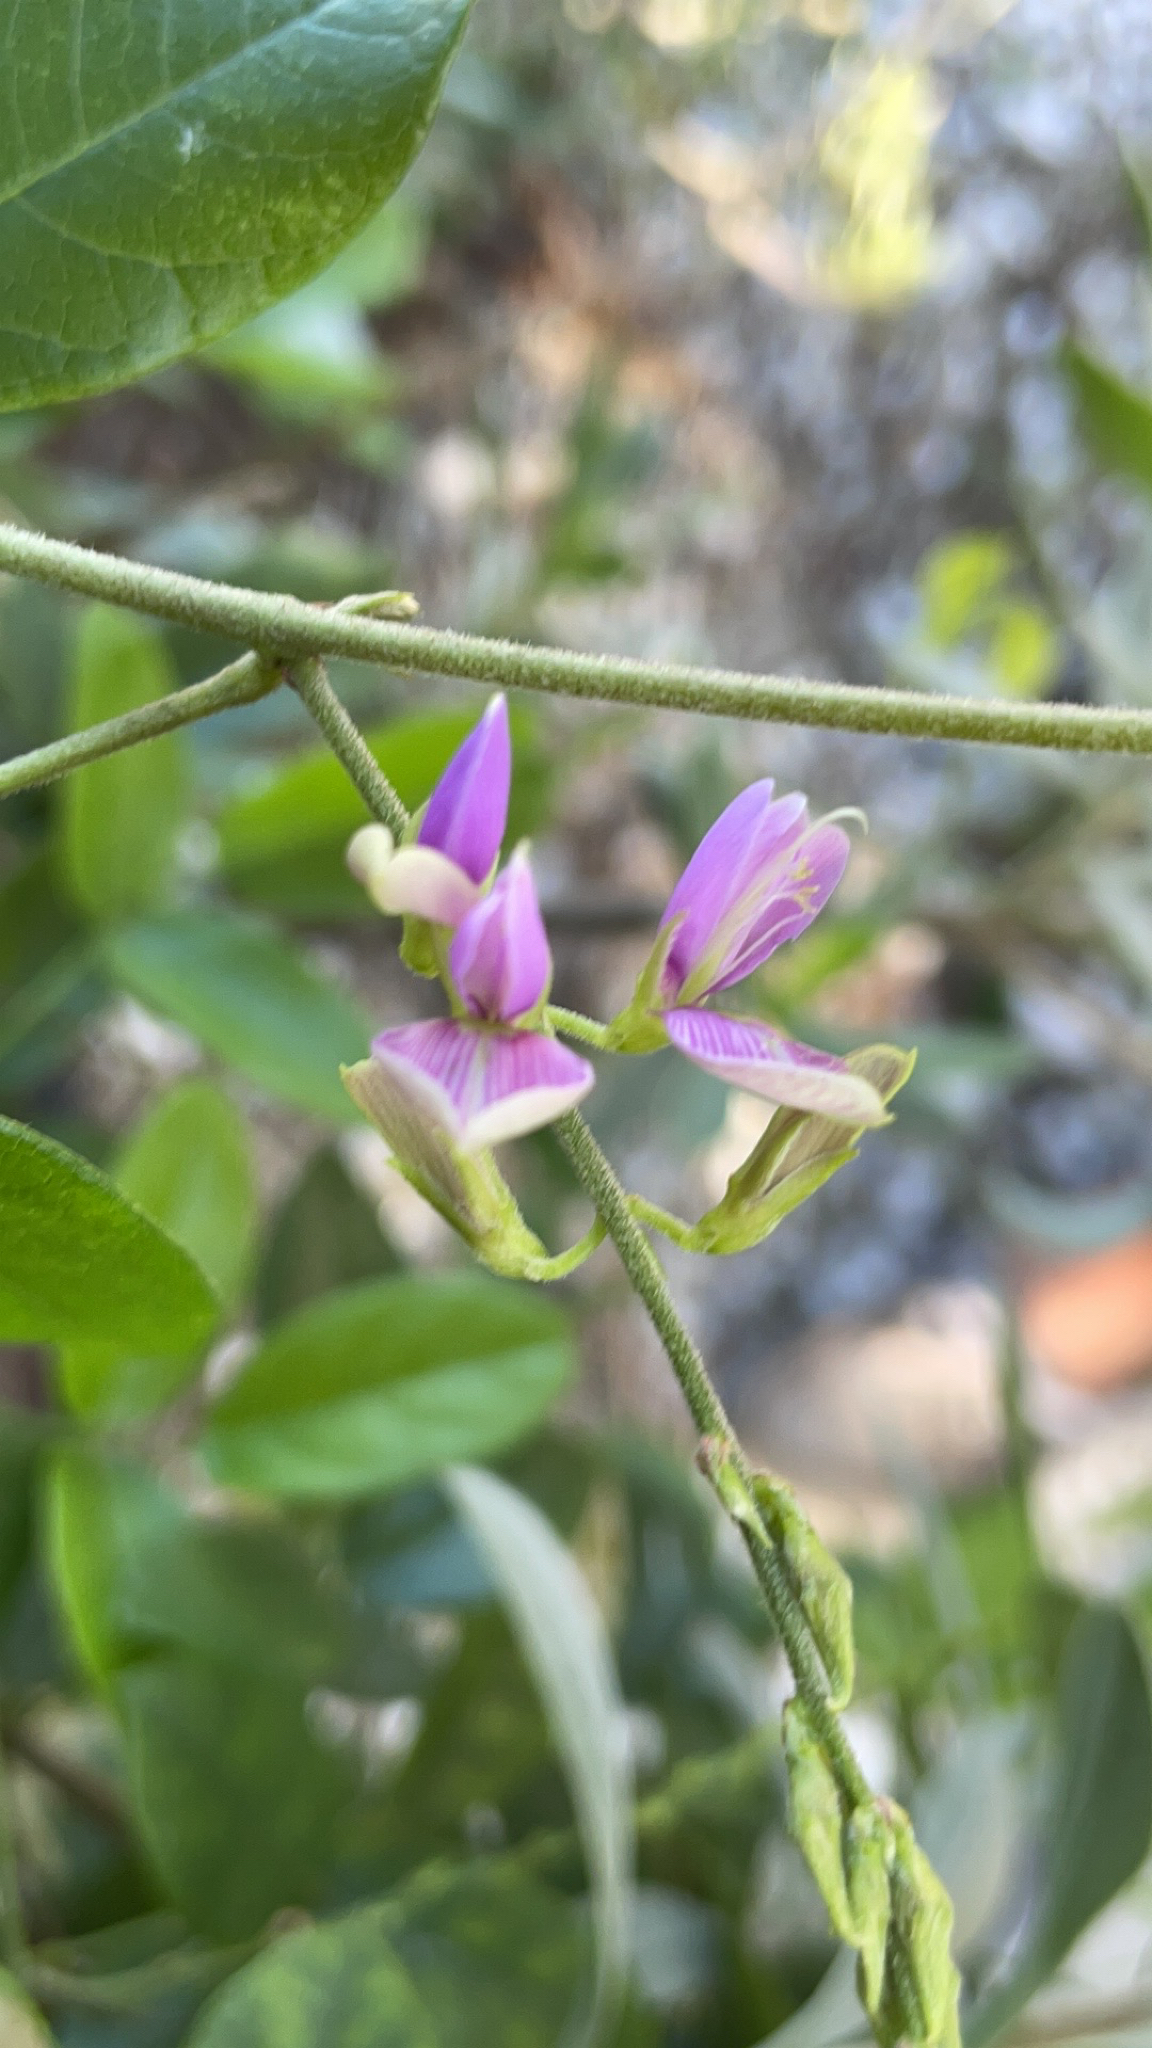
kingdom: Plantae
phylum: Tracheophyta
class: Magnoliopsida
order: Fabales
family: Fabaceae
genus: Galactia
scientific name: Galactia striata
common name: Florida hammock milkpea
